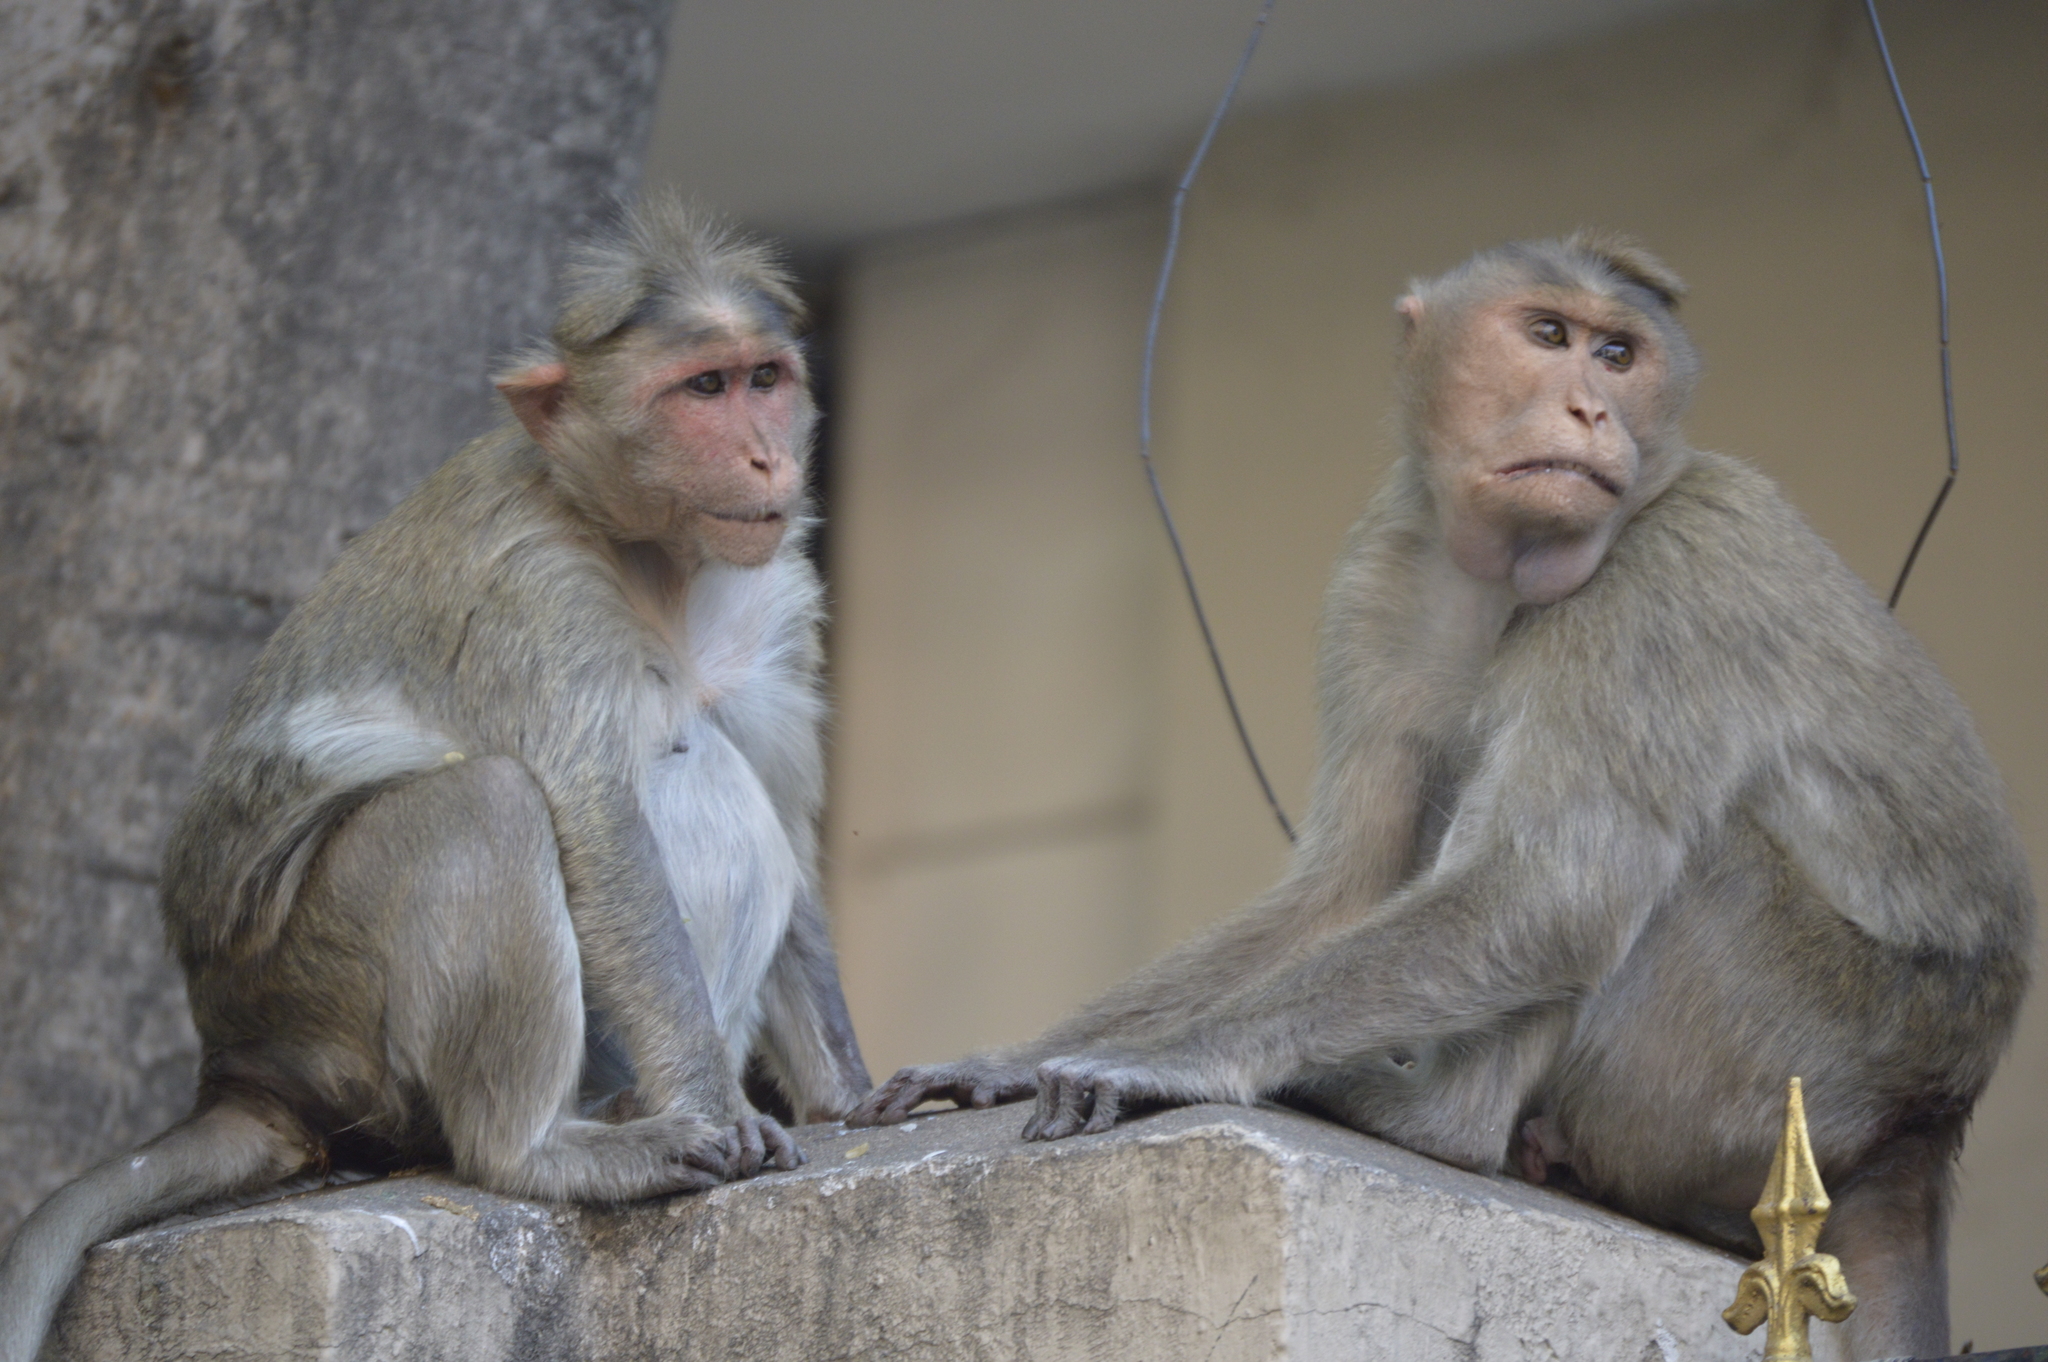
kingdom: Animalia
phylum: Chordata
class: Mammalia
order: Primates
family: Cercopithecidae
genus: Macaca
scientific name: Macaca radiata
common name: Bonnet macaque
